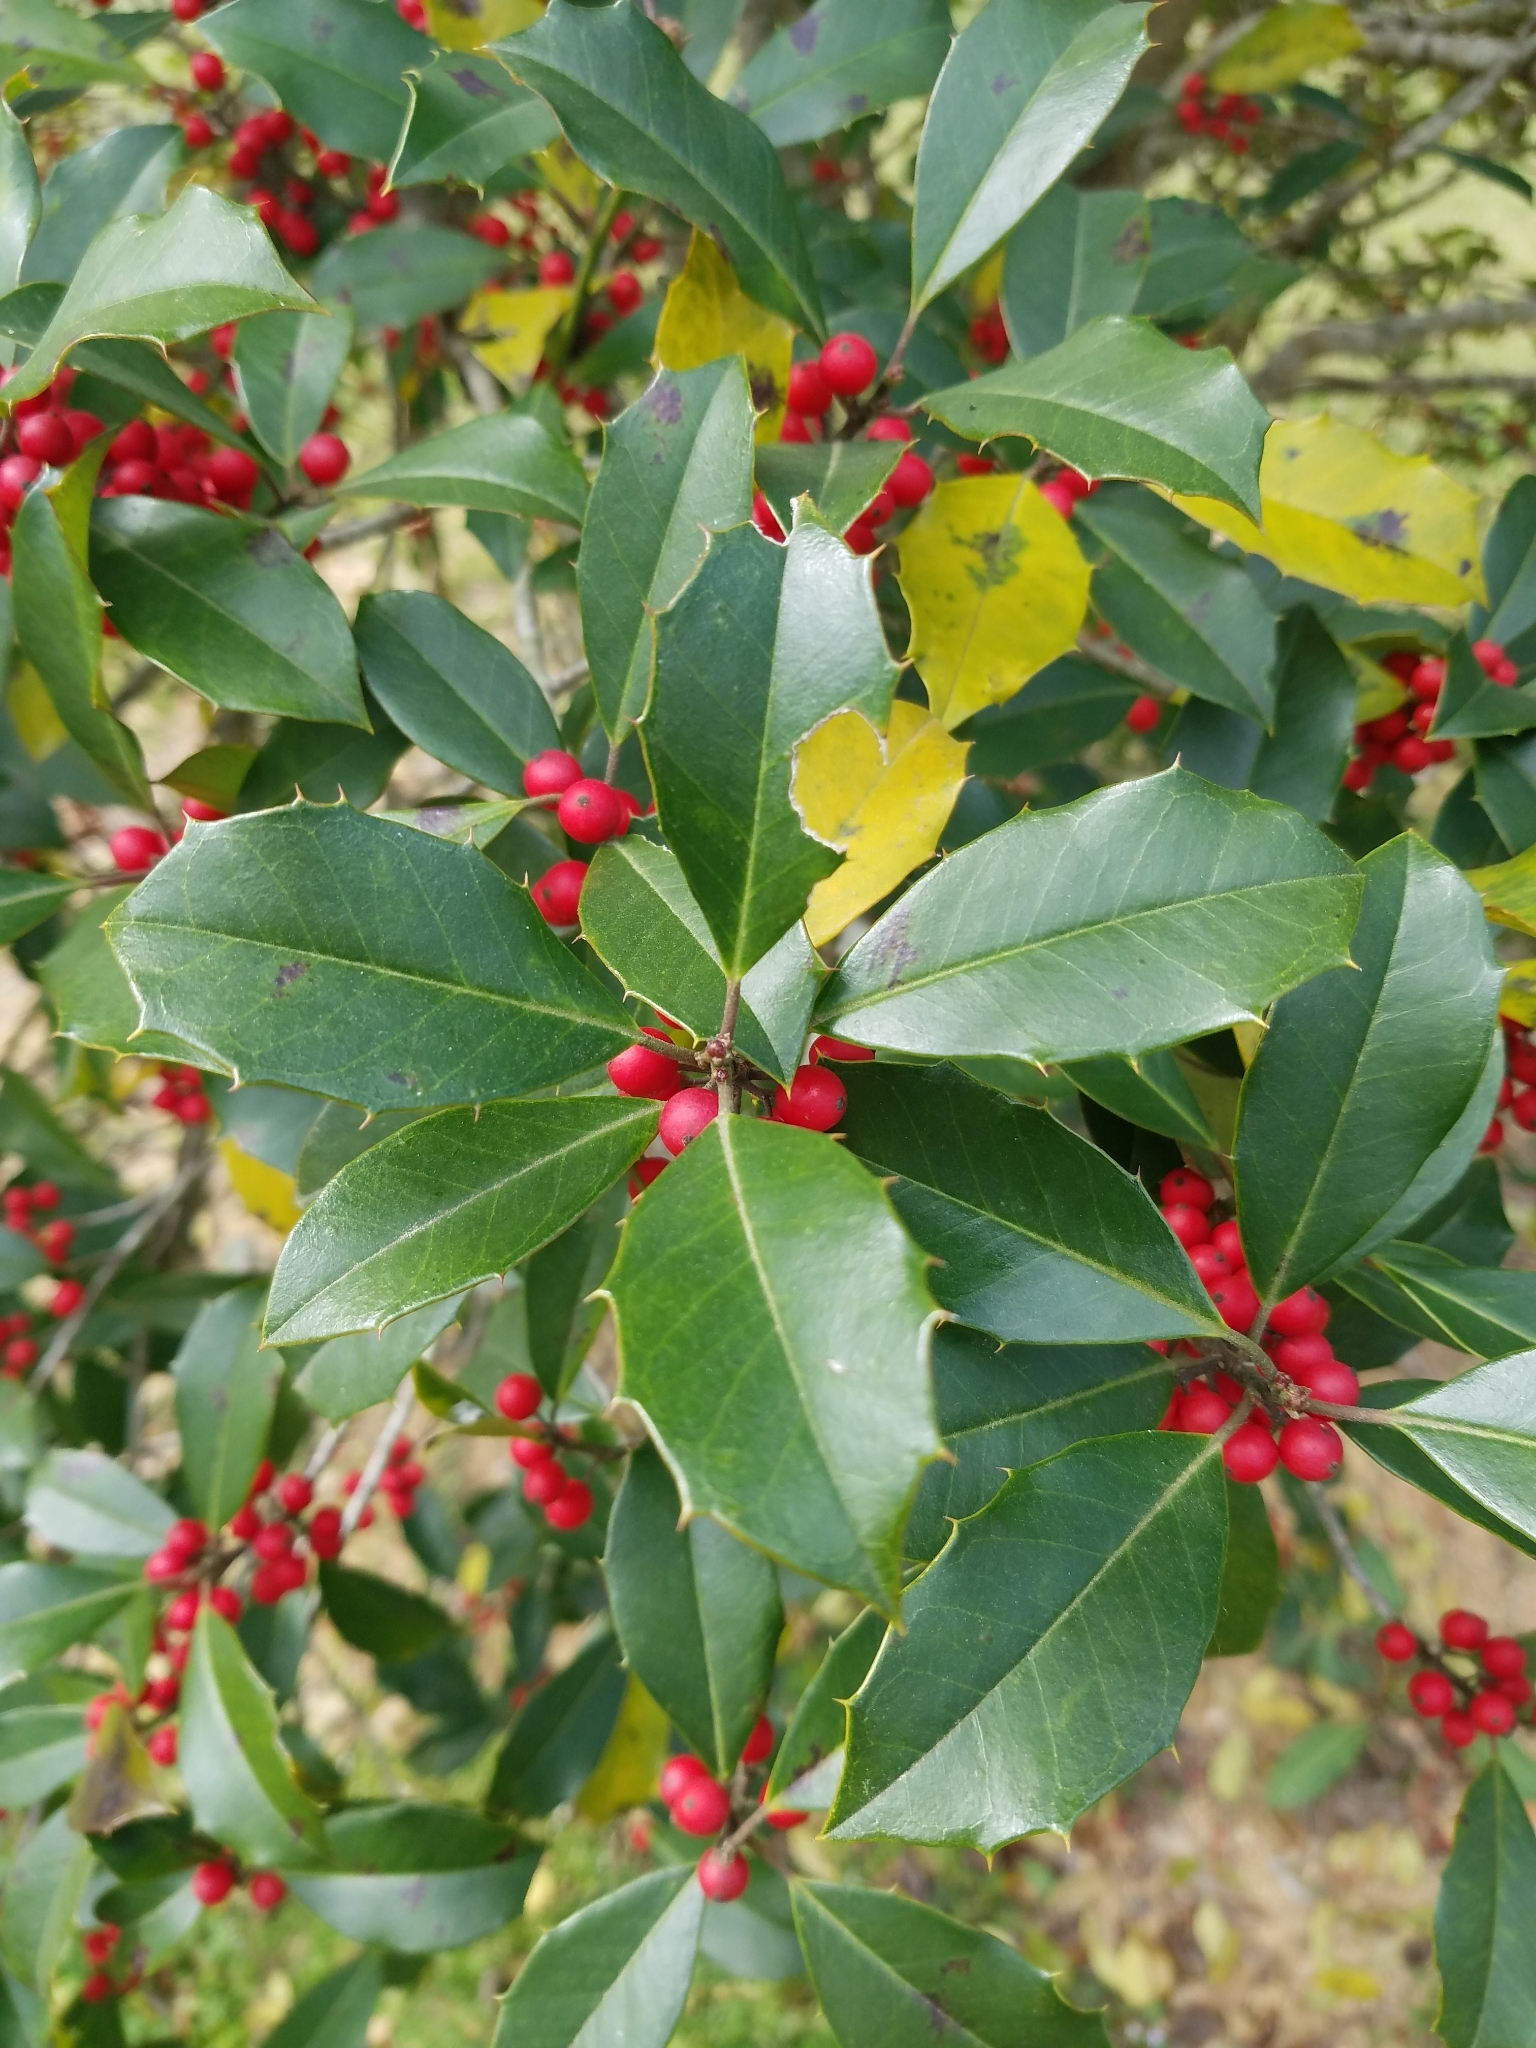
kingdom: Plantae
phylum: Tracheophyta
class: Magnoliopsida
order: Aquifoliales
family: Aquifoliaceae
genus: Ilex
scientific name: Ilex opaca
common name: American holly
